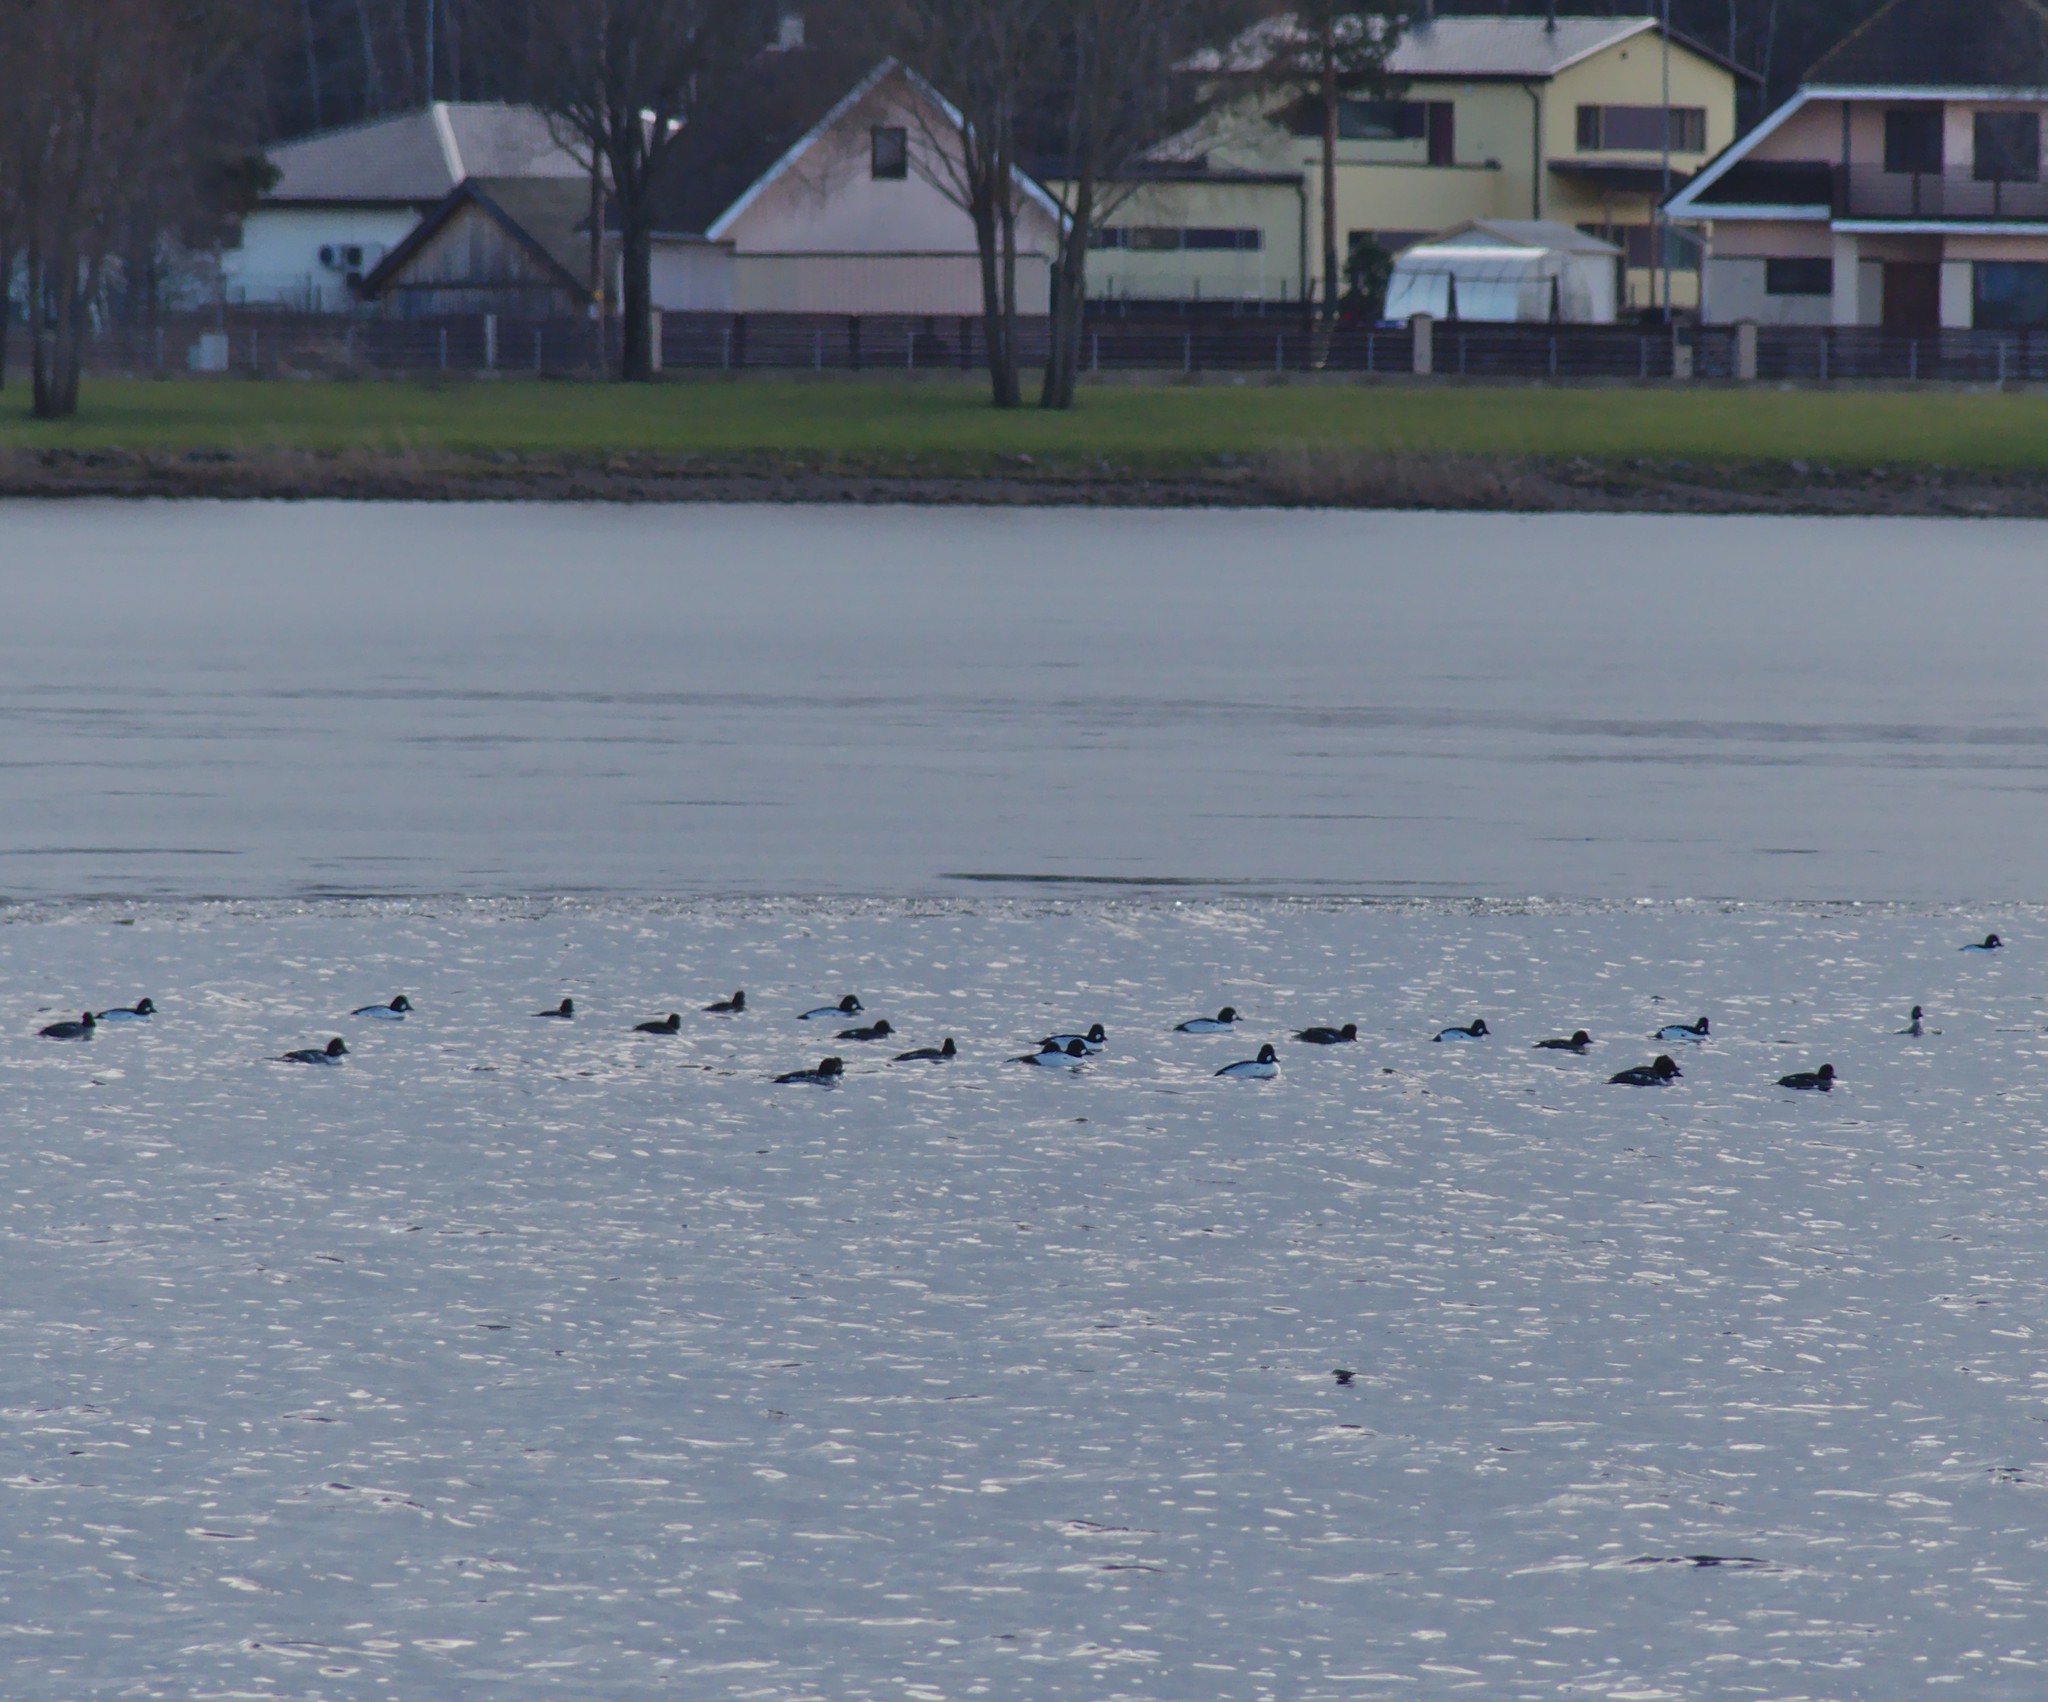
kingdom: Animalia
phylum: Chordata
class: Aves
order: Anseriformes
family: Anatidae
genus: Bucephala
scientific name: Bucephala clangula
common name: Common goldeneye
